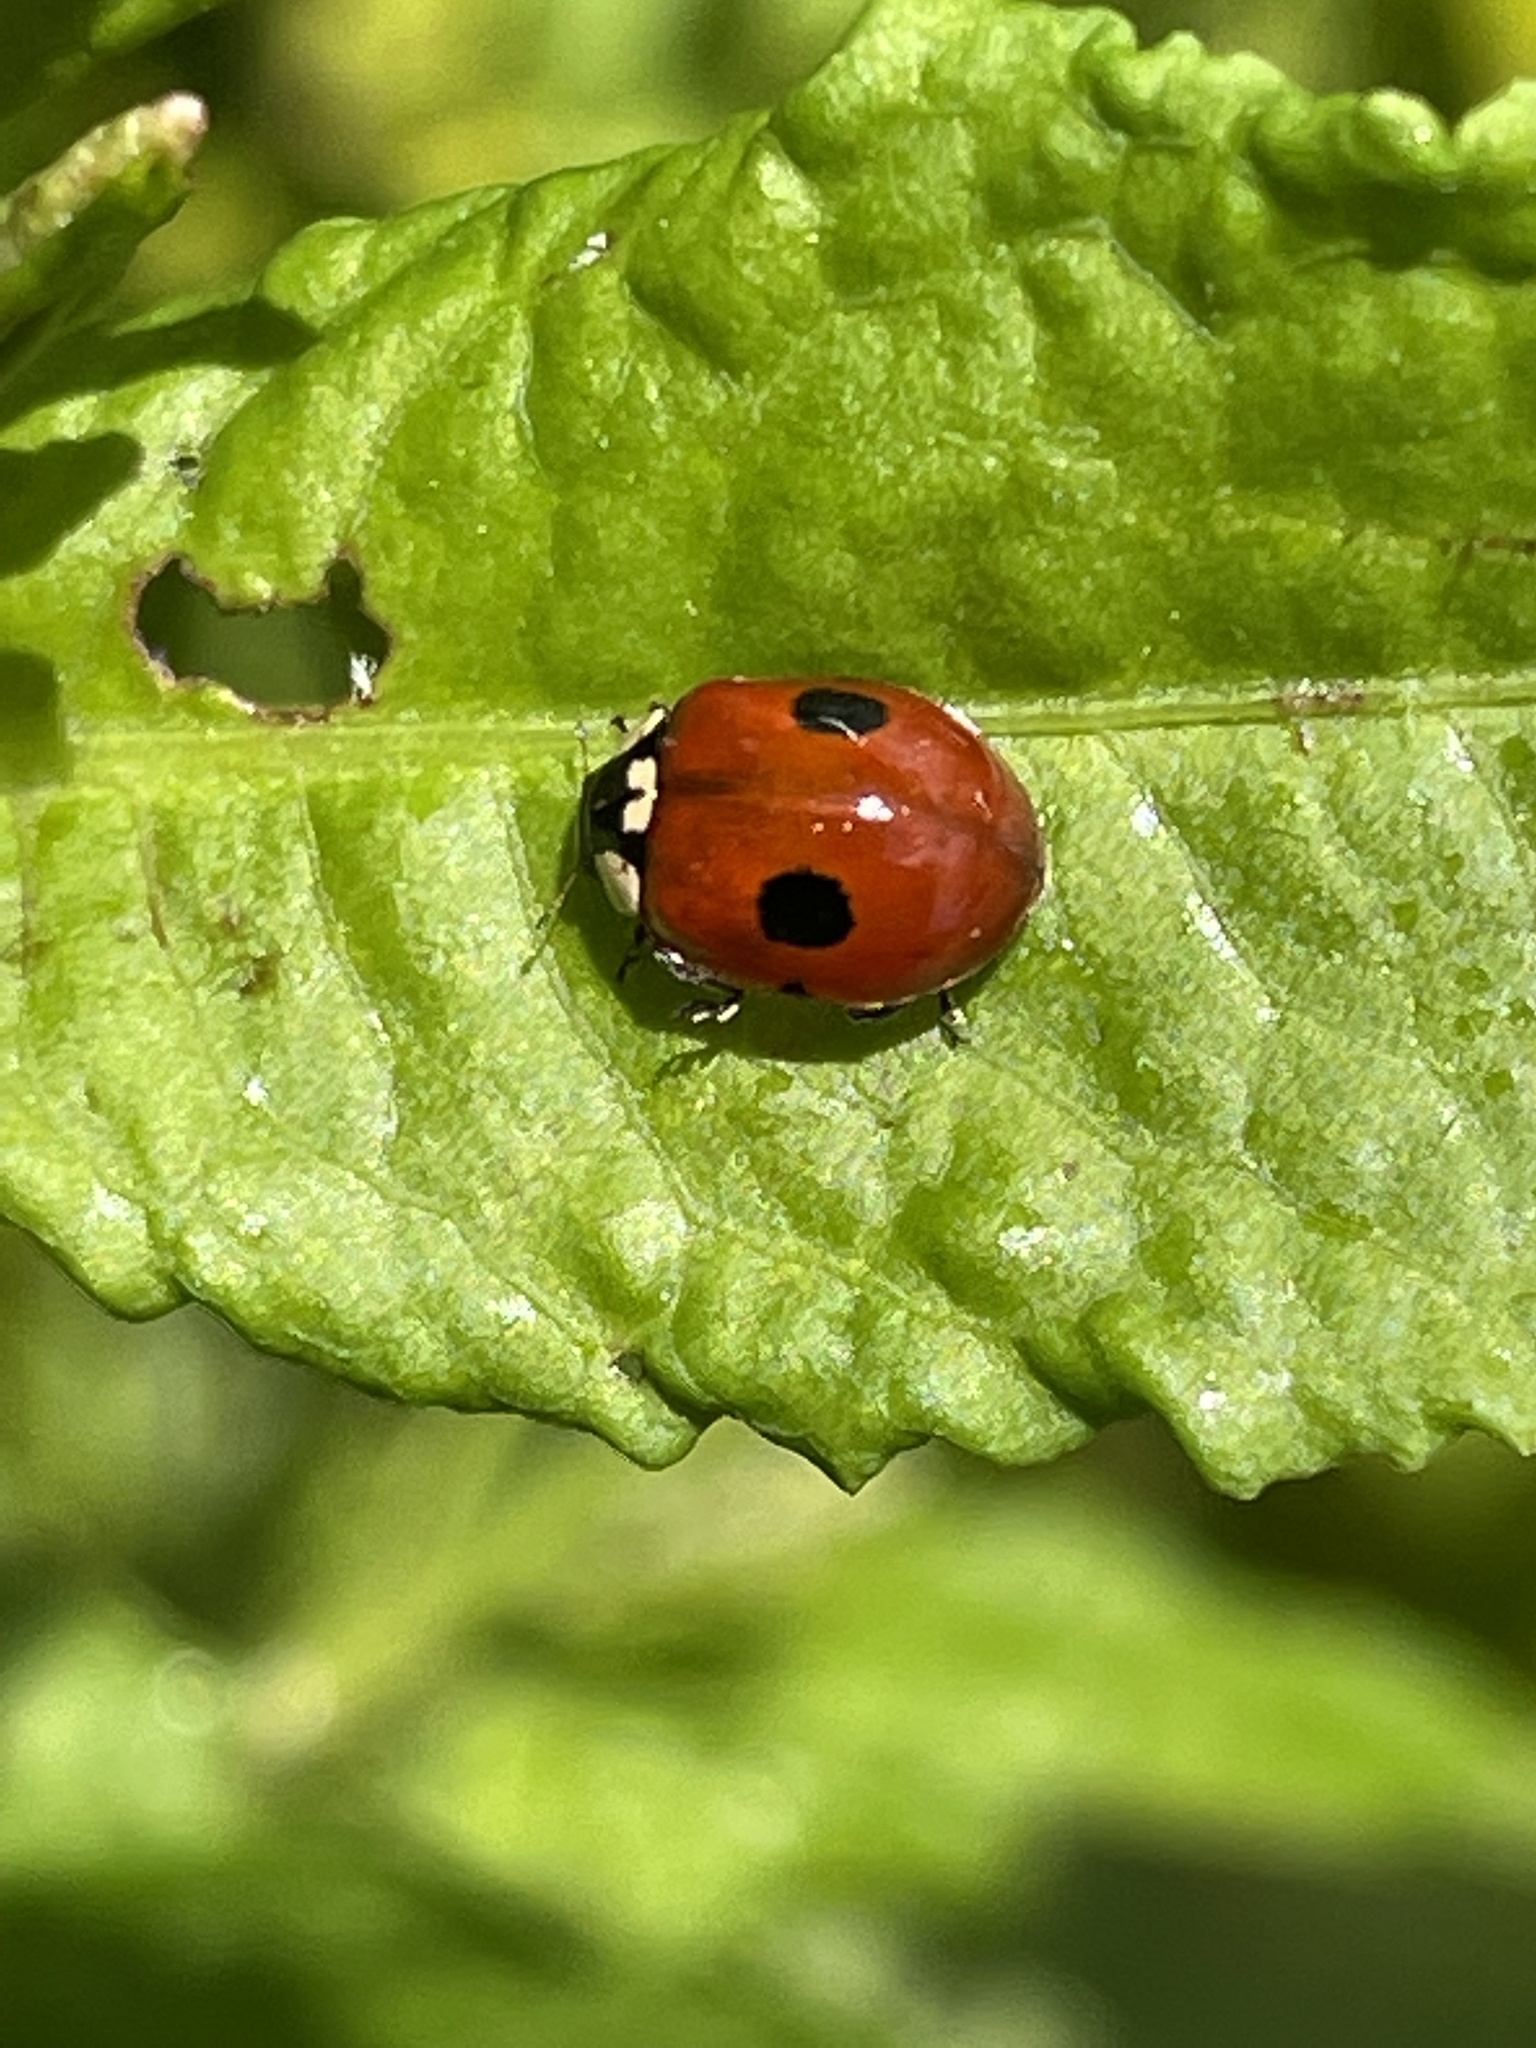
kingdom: Animalia
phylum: Arthropoda
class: Insecta
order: Coleoptera
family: Coccinellidae
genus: Adalia
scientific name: Adalia bipunctata
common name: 2-spot ladybird
